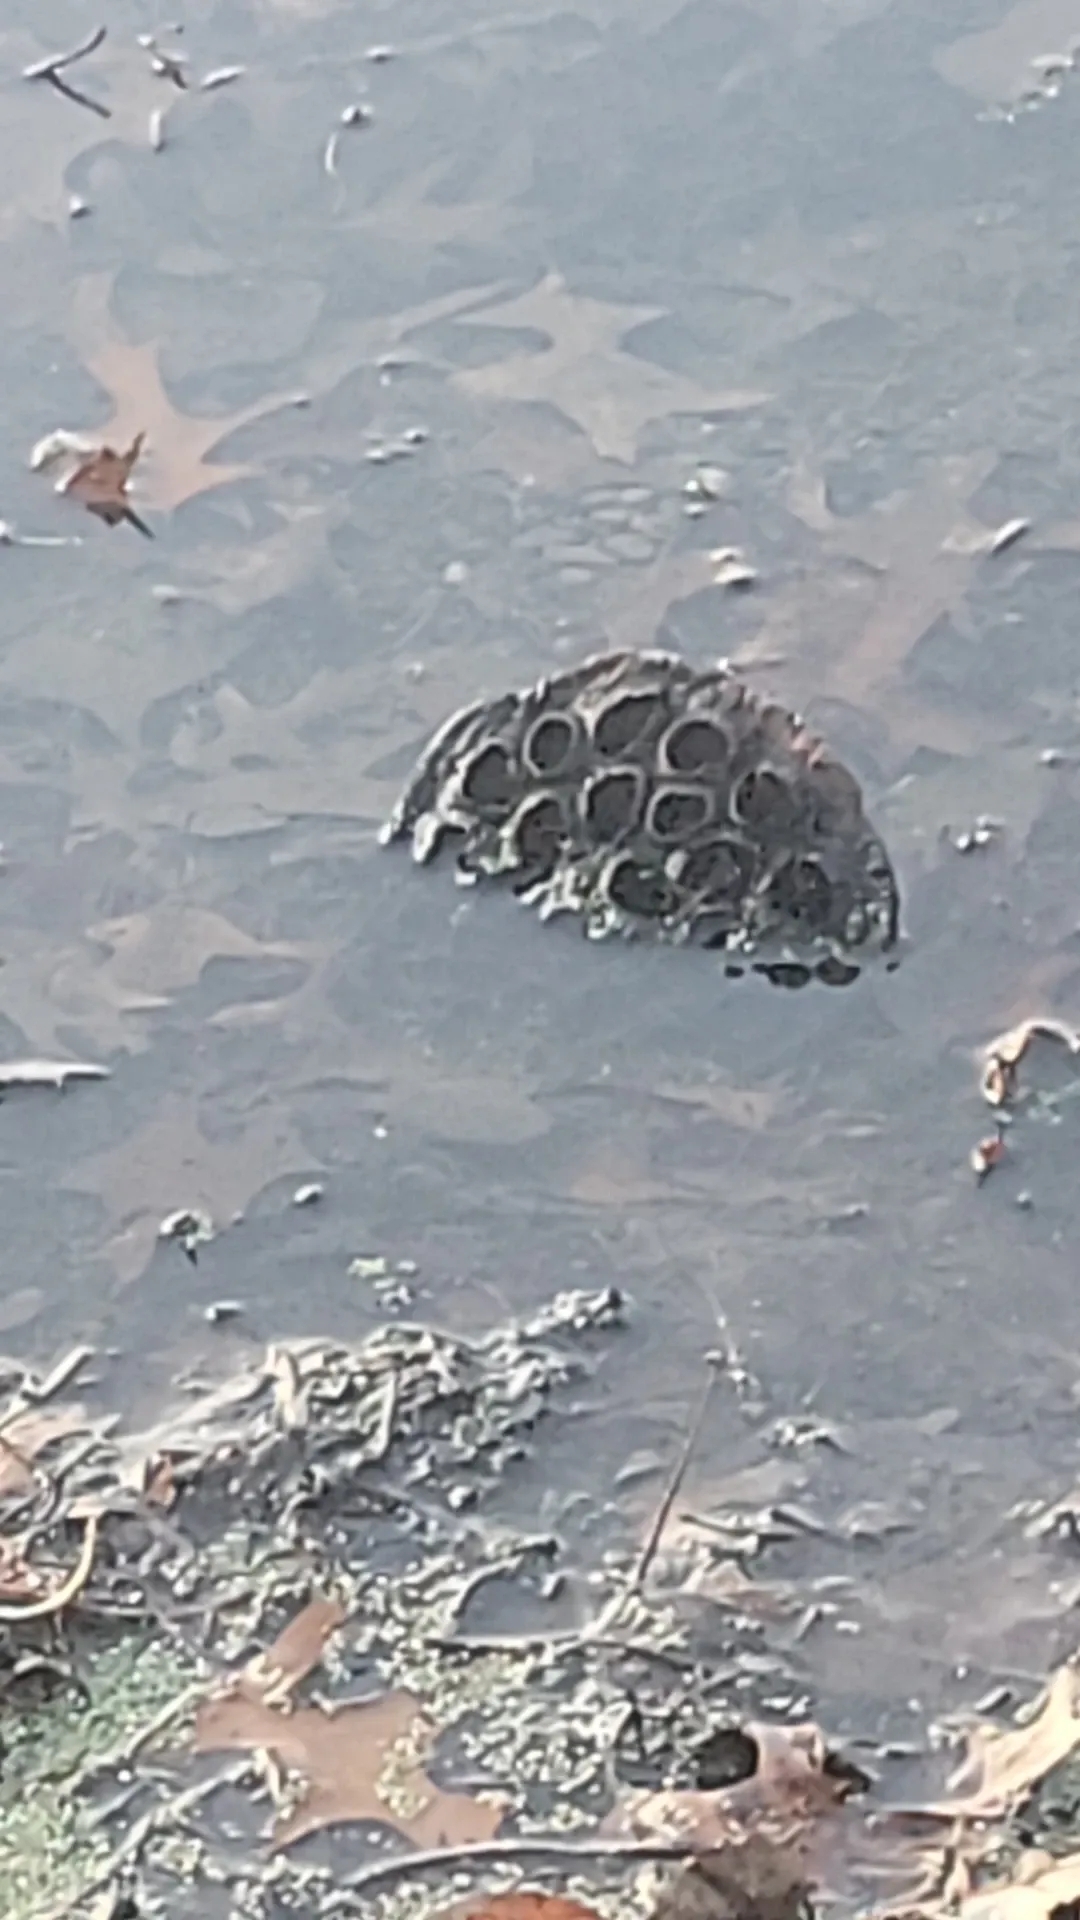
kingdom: Plantae
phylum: Tracheophyta
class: Magnoliopsida
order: Proteales
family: Nelumbonaceae
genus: Nelumbo
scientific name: Nelumbo lutea
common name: American lotus
